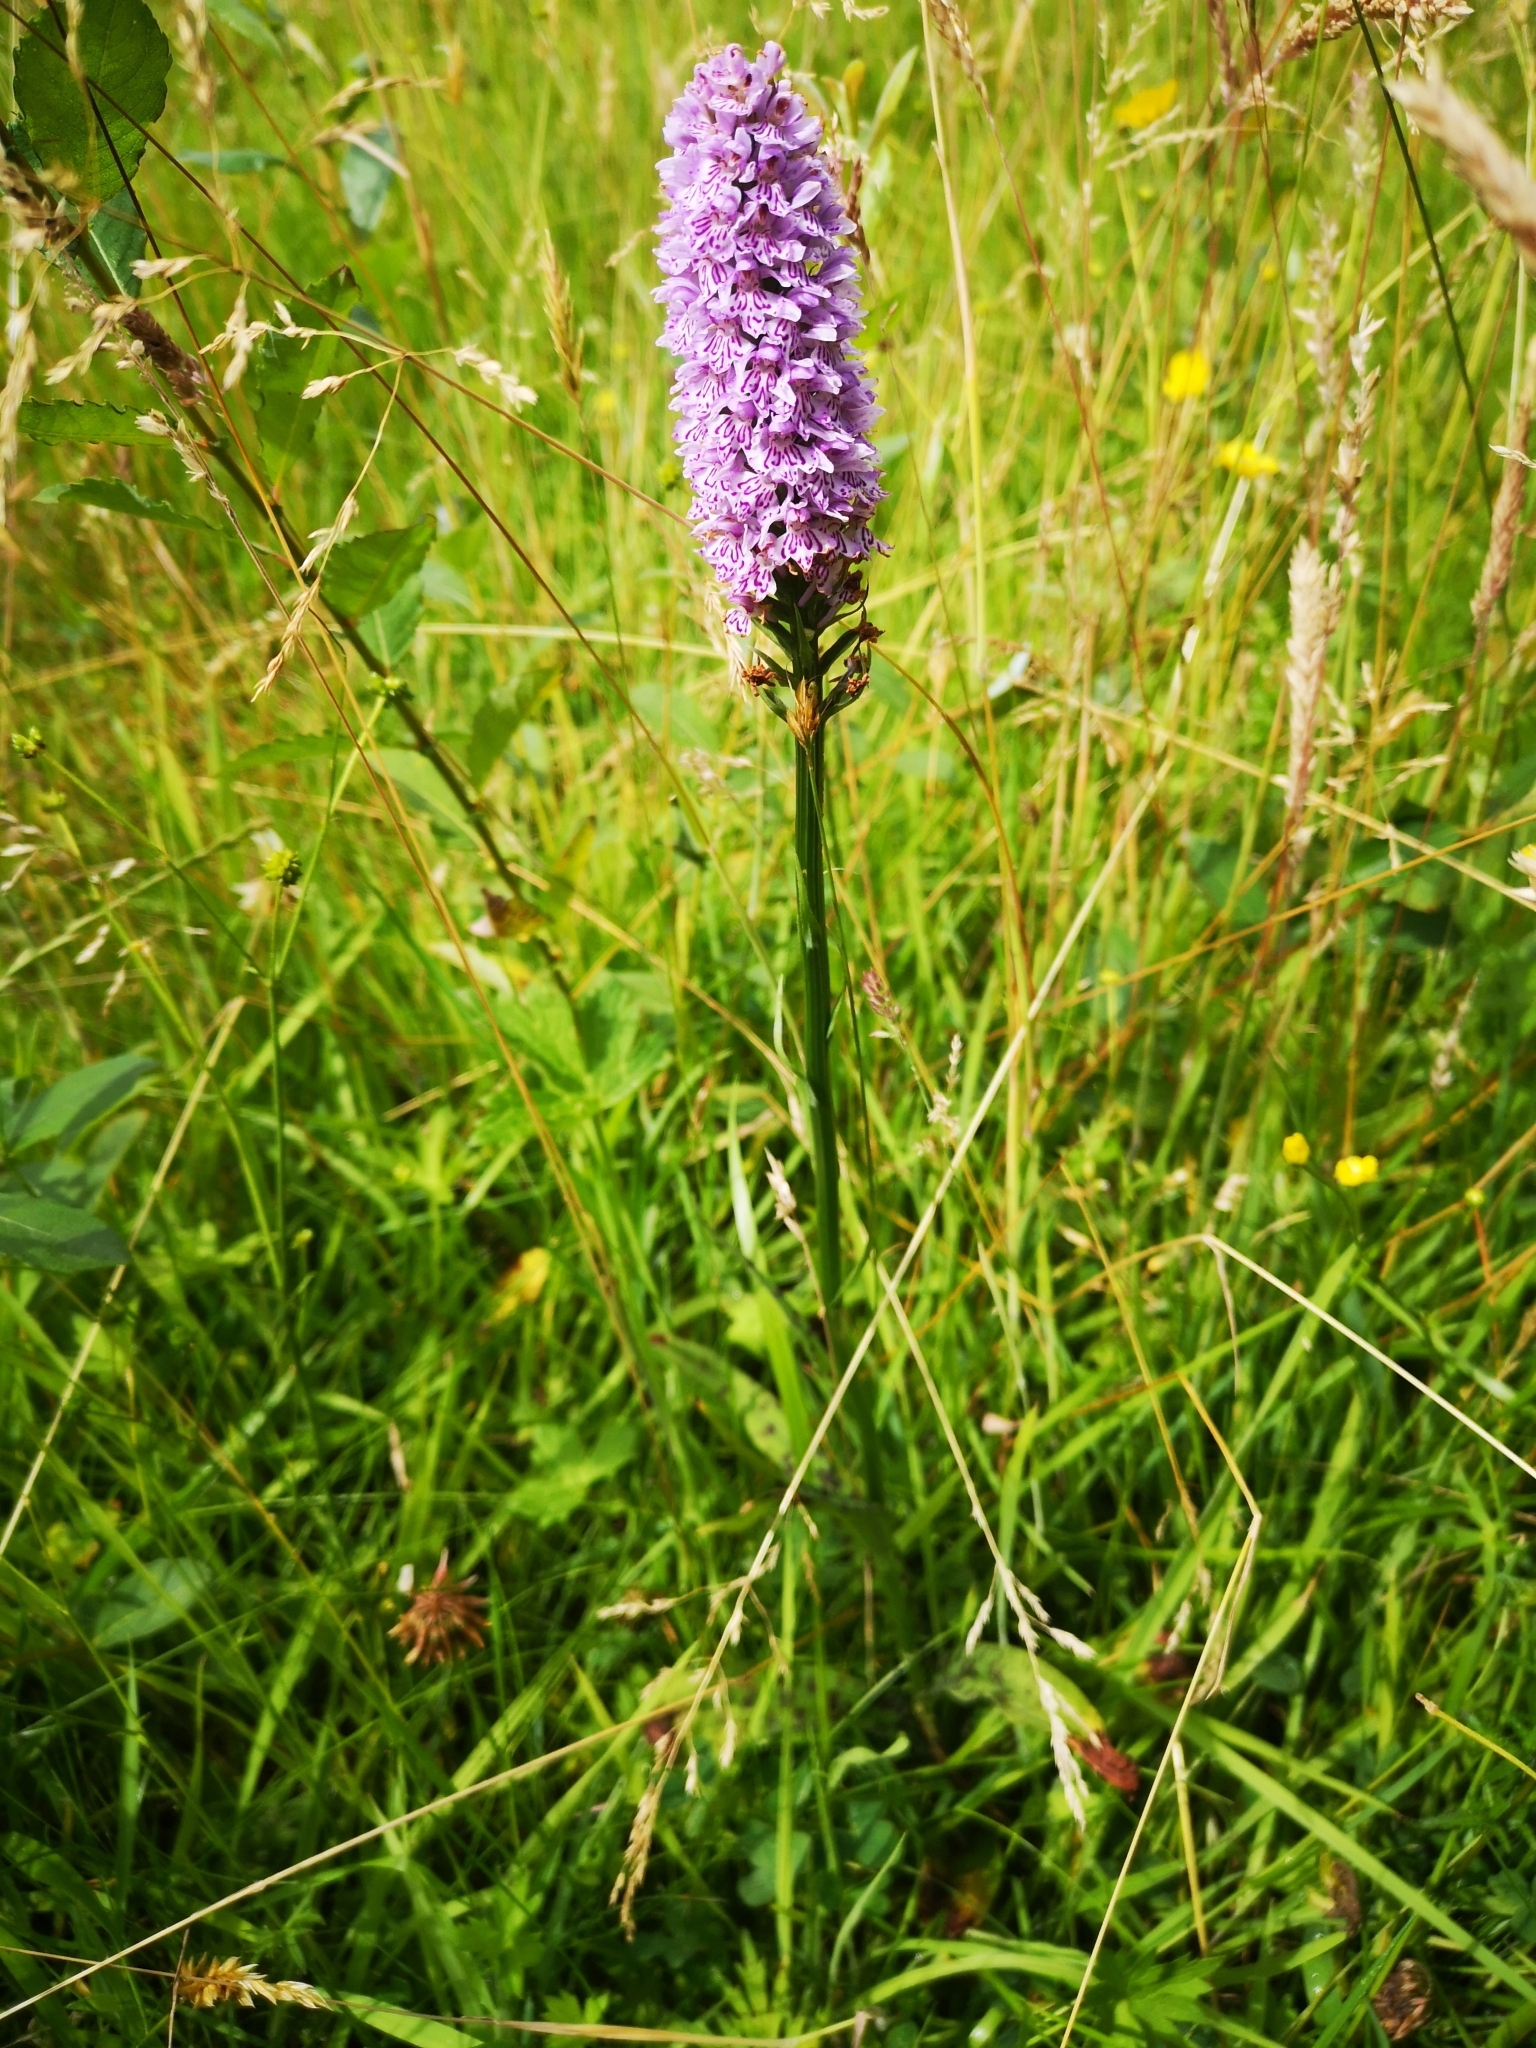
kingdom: Plantae
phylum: Tracheophyta
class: Liliopsida
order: Asparagales
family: Orchidaceae
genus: Dactylorhiza
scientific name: Dactylorhiza maculata
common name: Heath spotted-orchid
